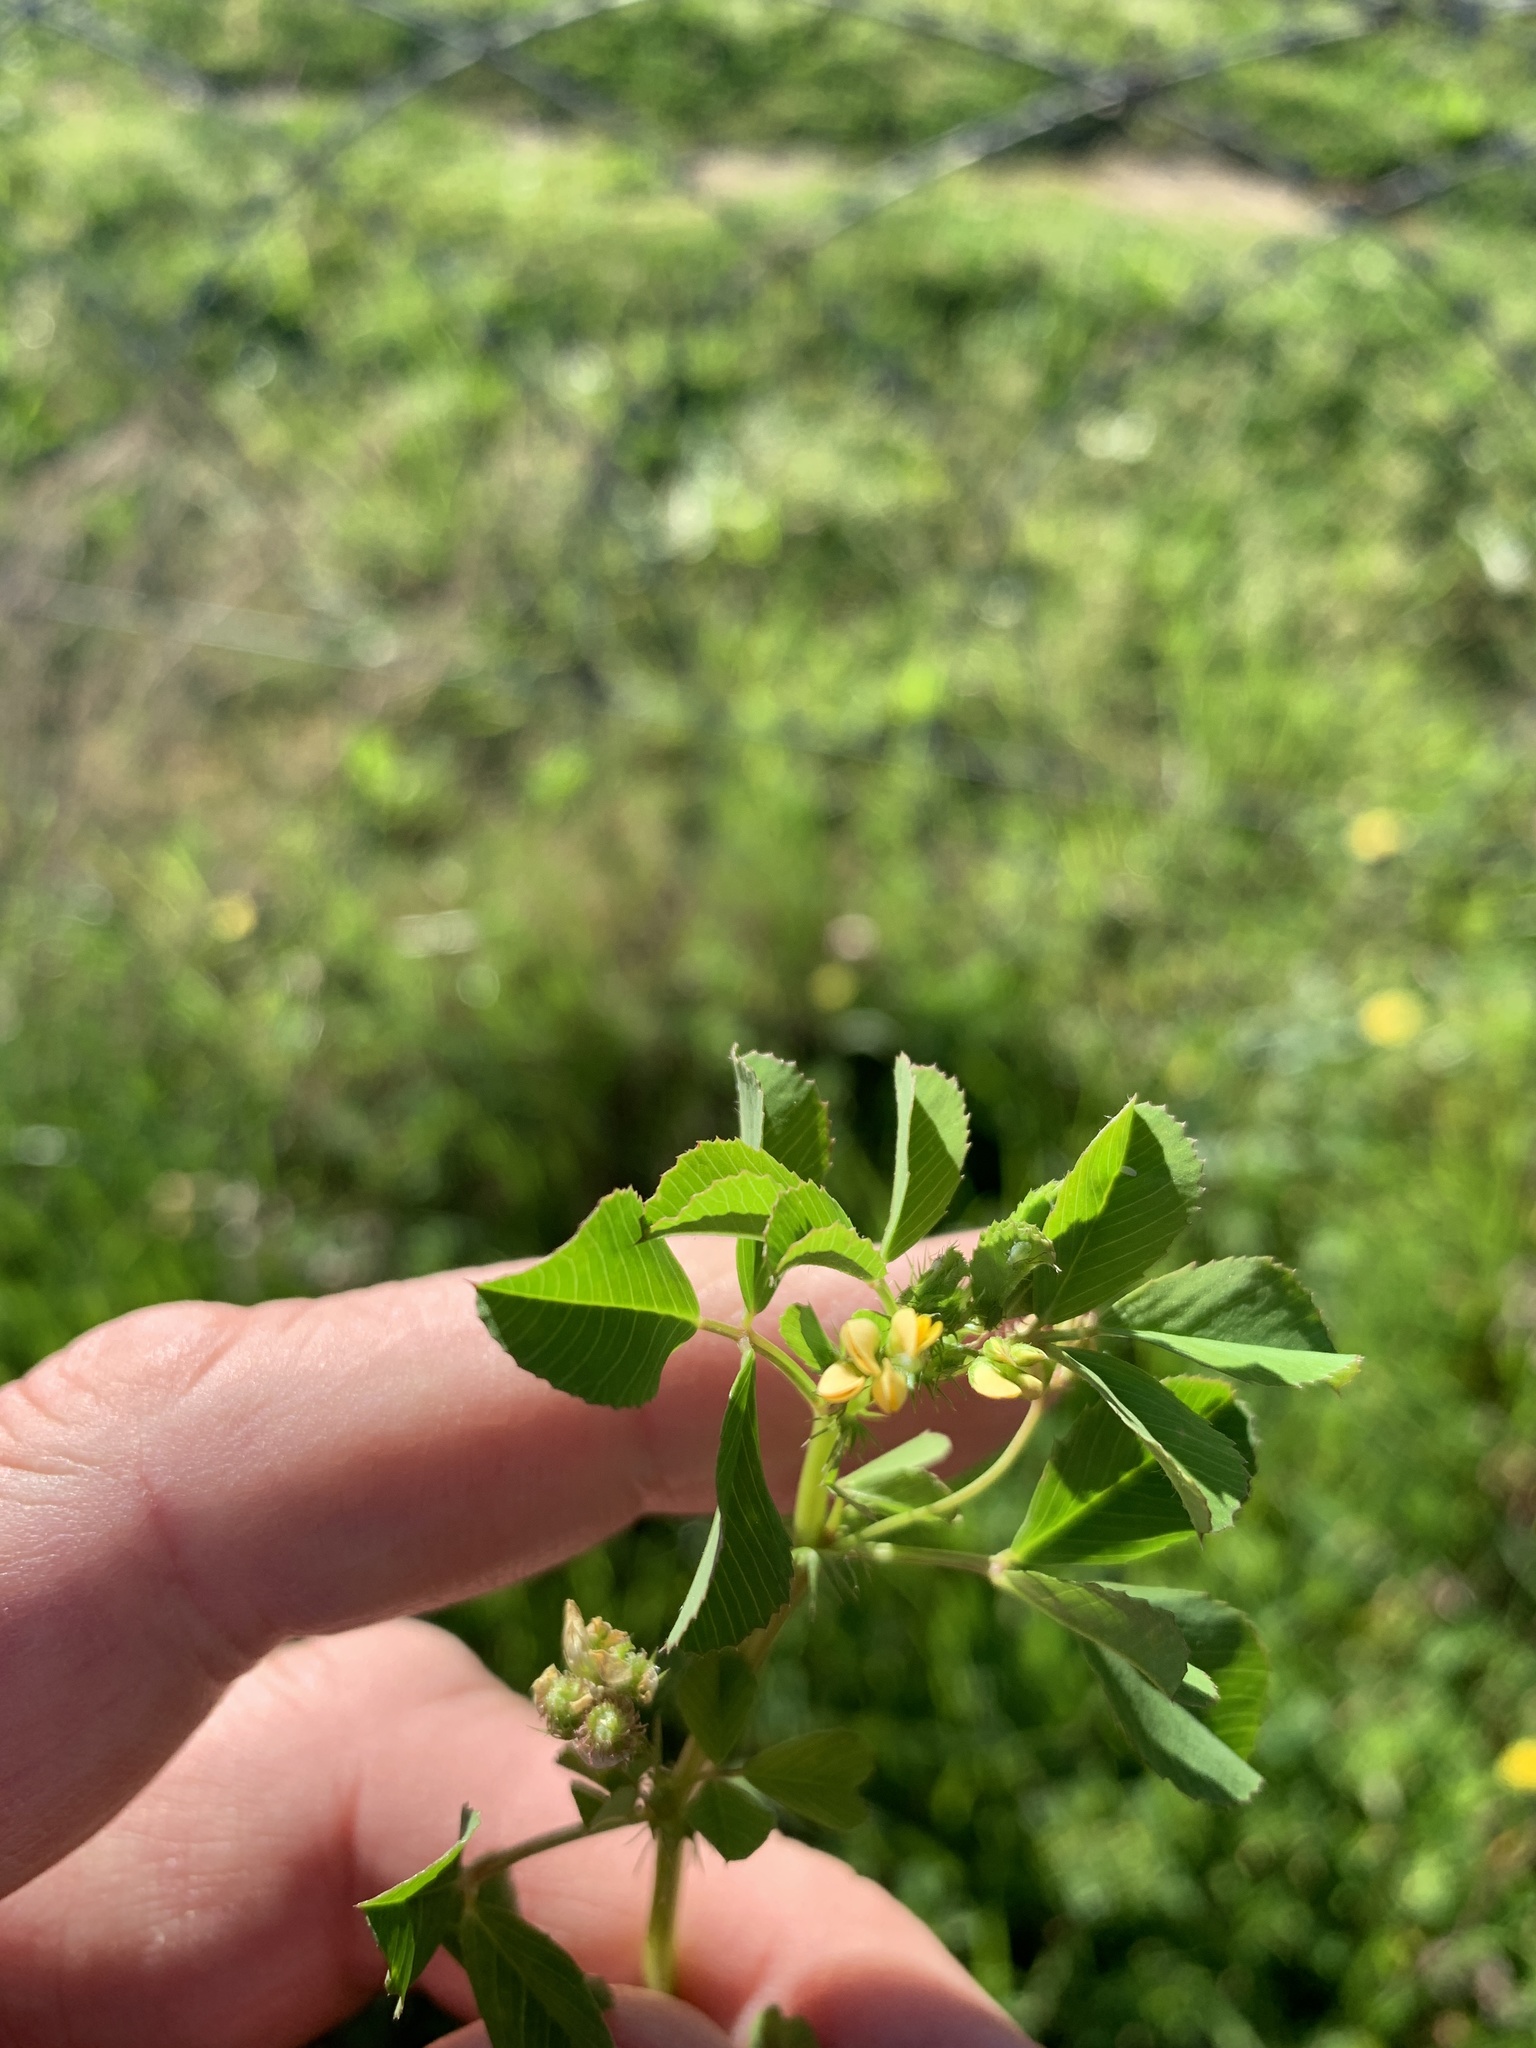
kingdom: Plantae
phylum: Tracheophyta
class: Magnoliopsida
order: Fabales
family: Fabaceae
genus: Medicago
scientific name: Medicago polymorpha
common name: Burclover
